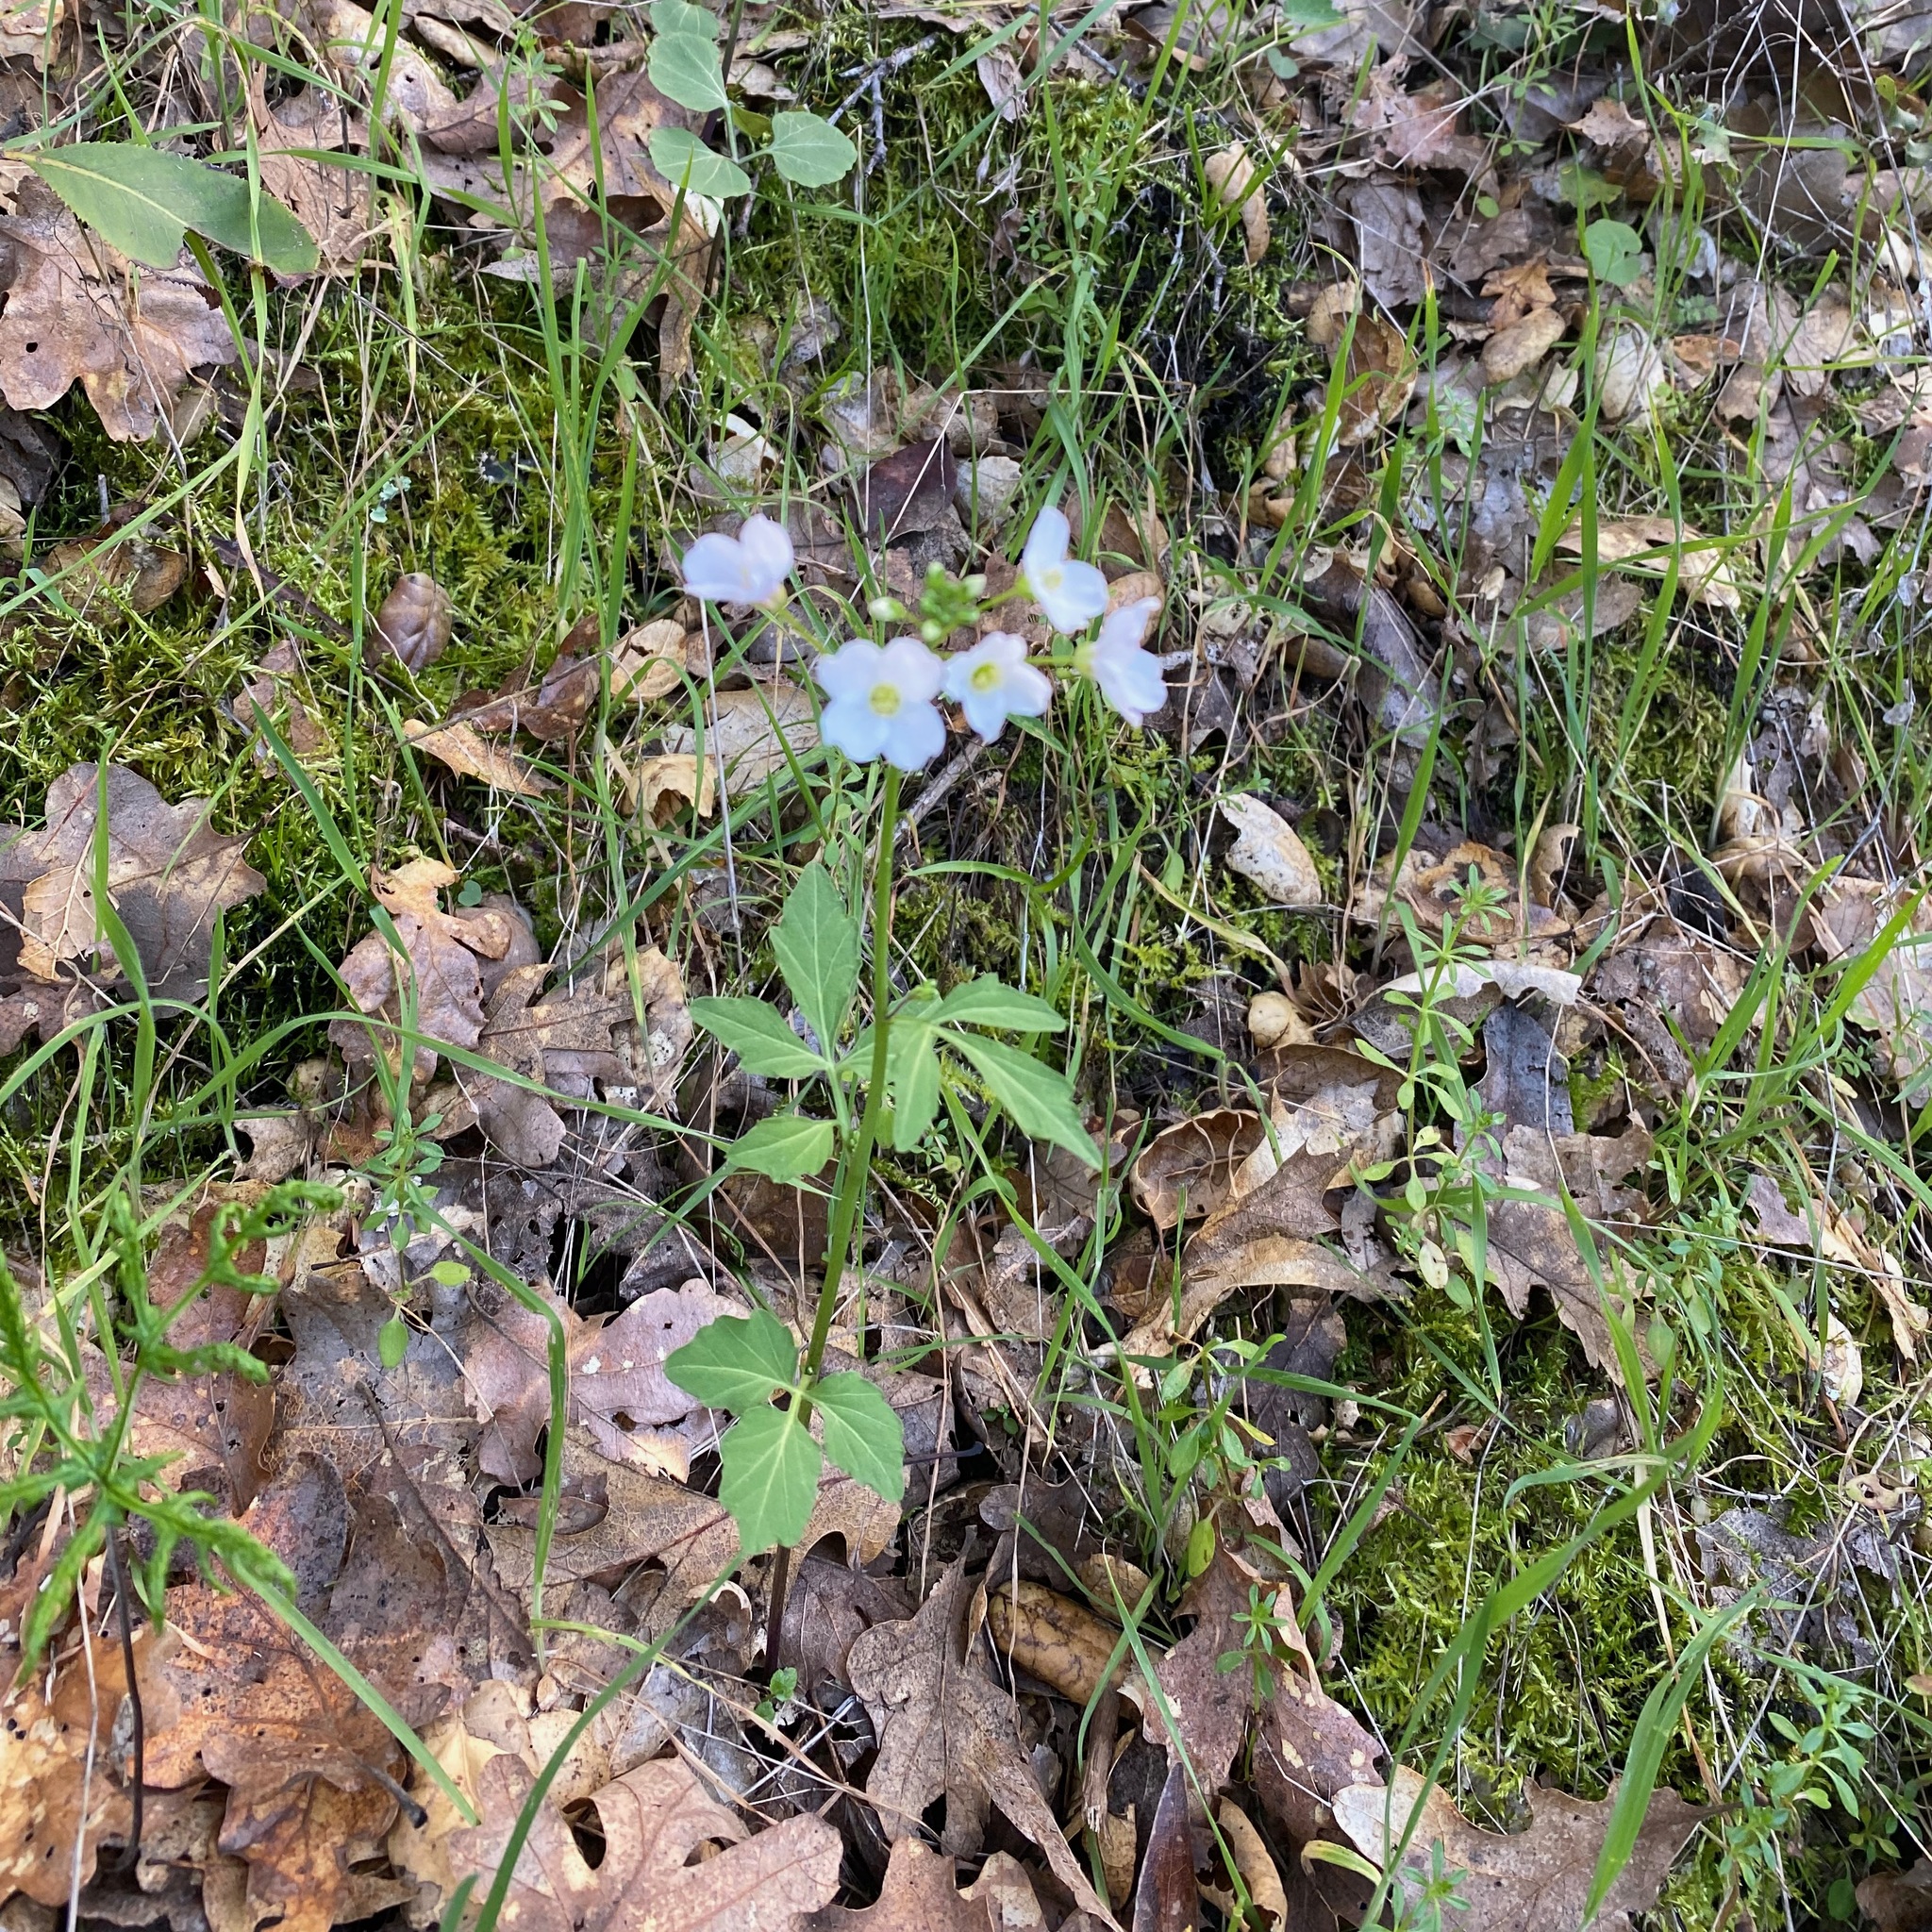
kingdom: Plantae
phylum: Tracheophyta
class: Magnoliopsida
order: Brassicales
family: Brassicaceae
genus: Cardamine
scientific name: Cardamine californica
